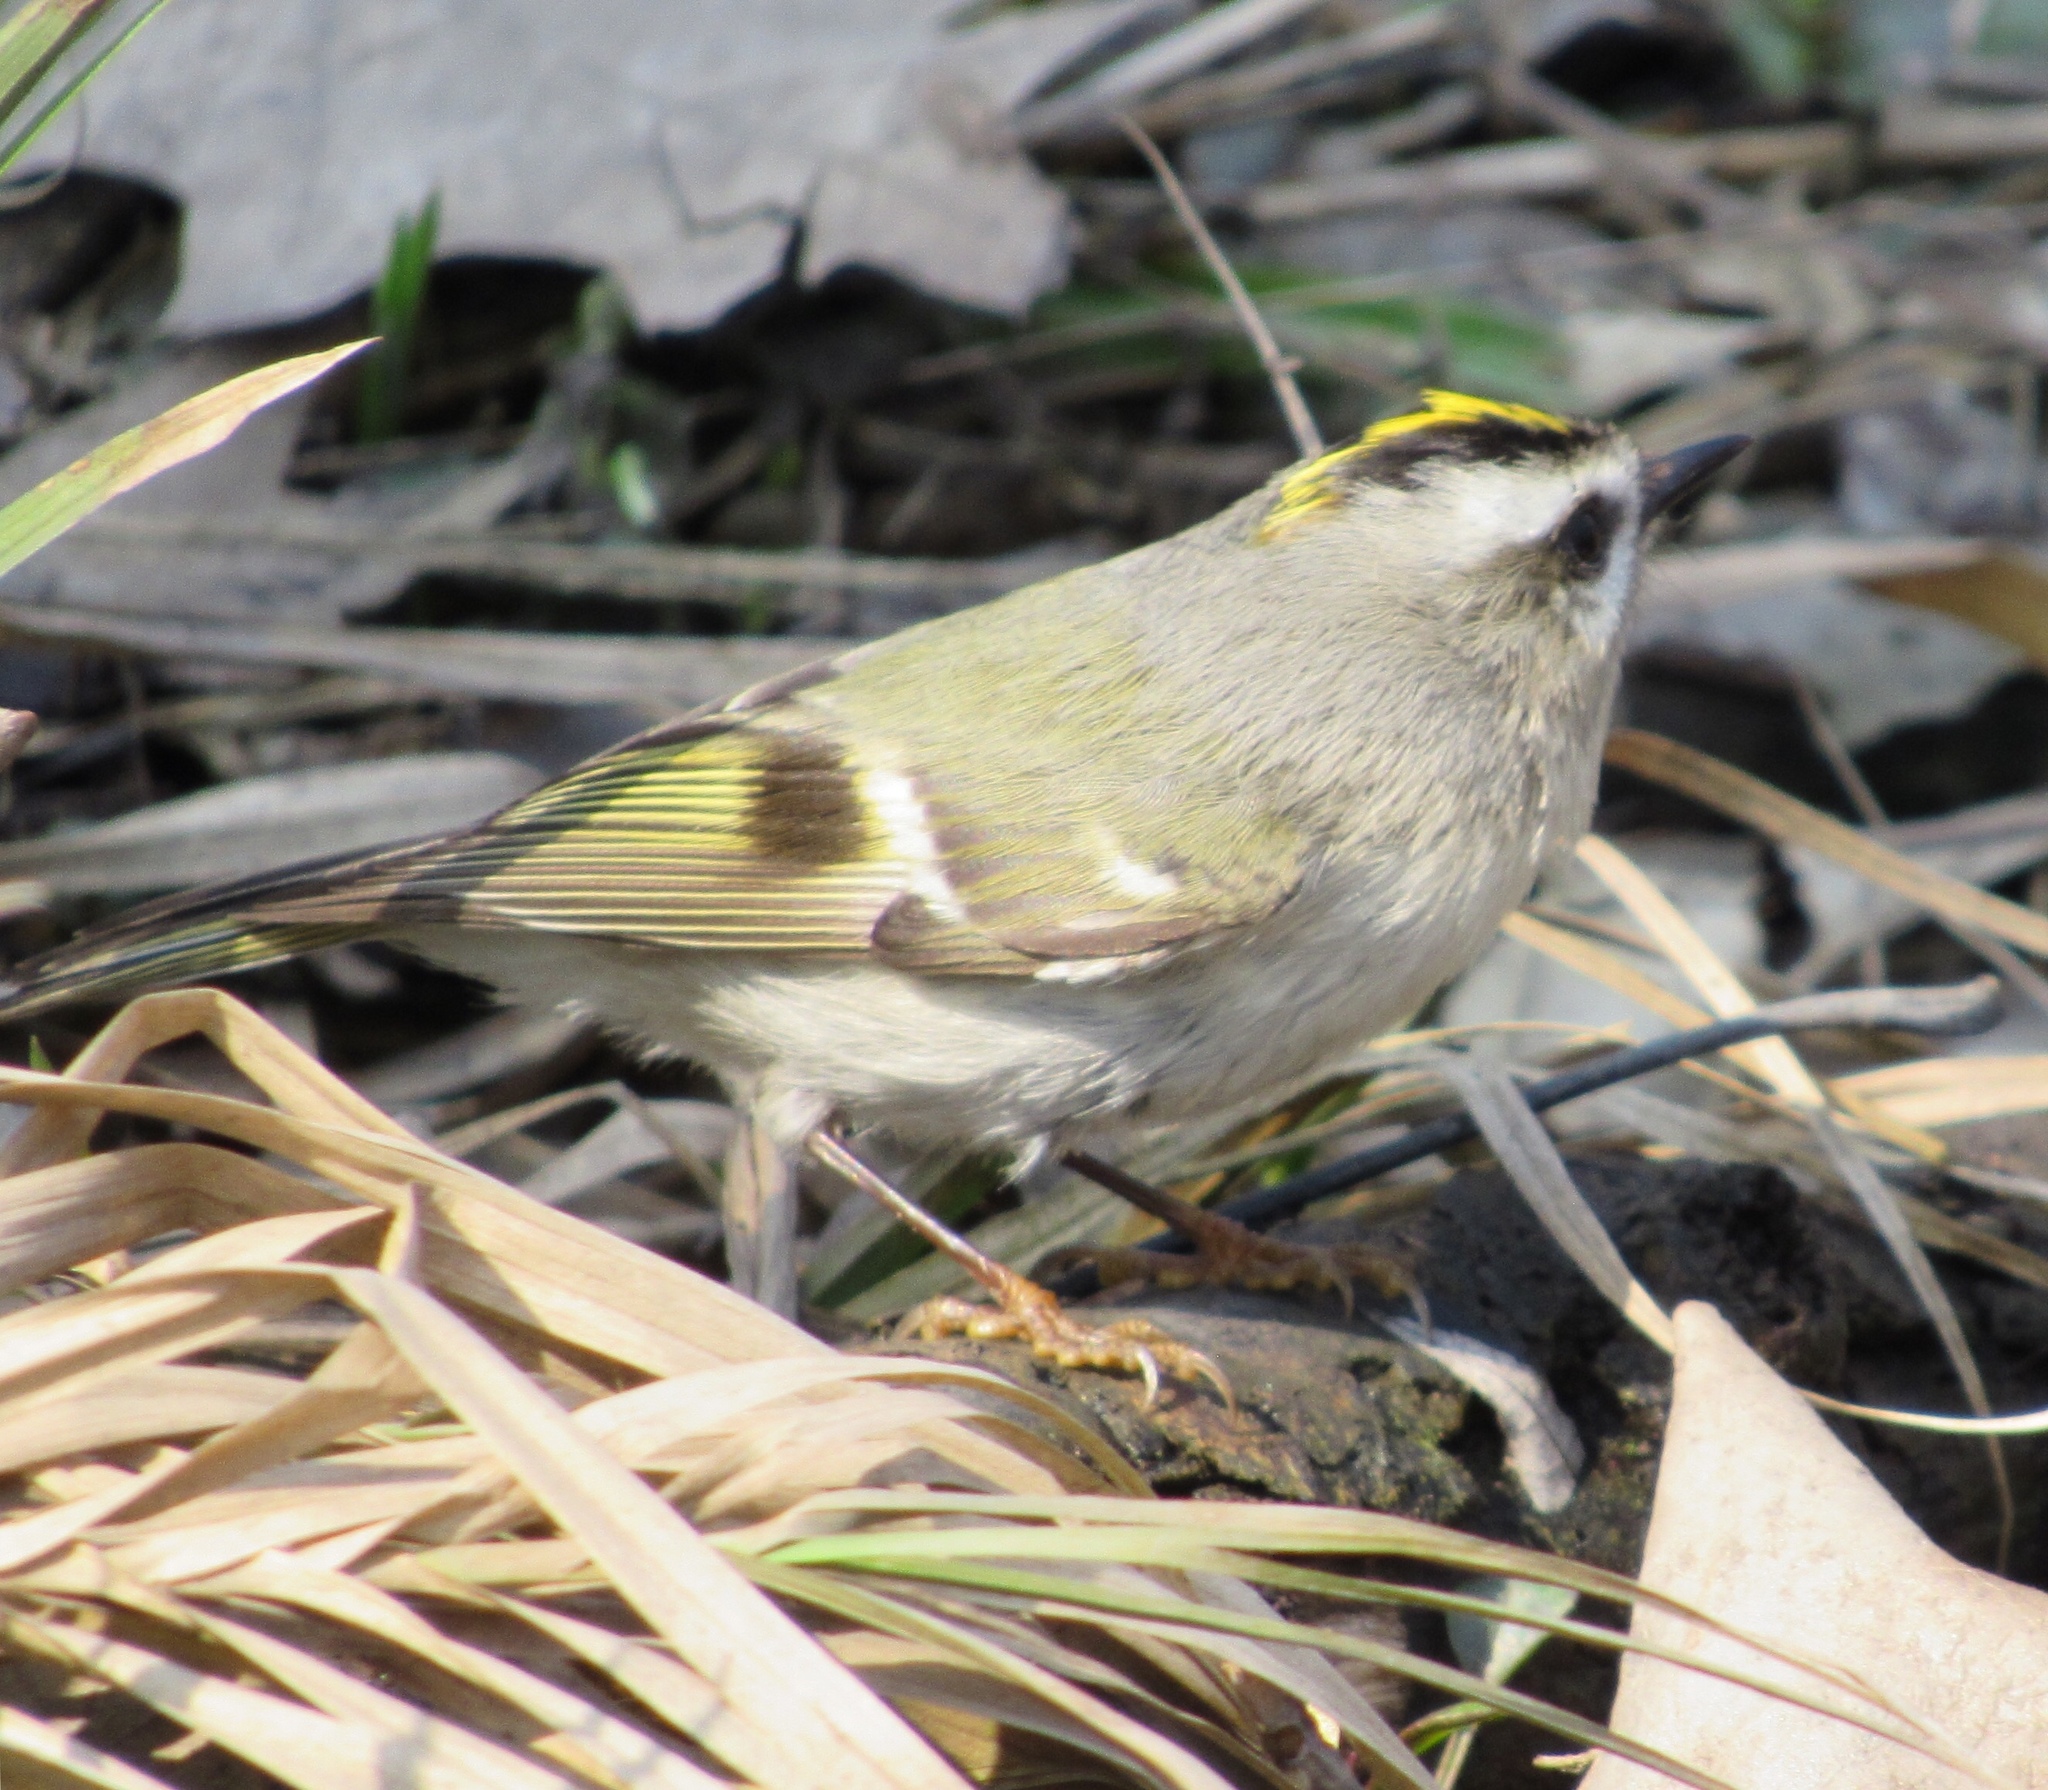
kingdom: Animalia
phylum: Chordata
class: Aves
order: Passeriformes
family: Regulidae
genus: Regulus
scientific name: Regulus satrapa
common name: Golden-crowned kinglet
